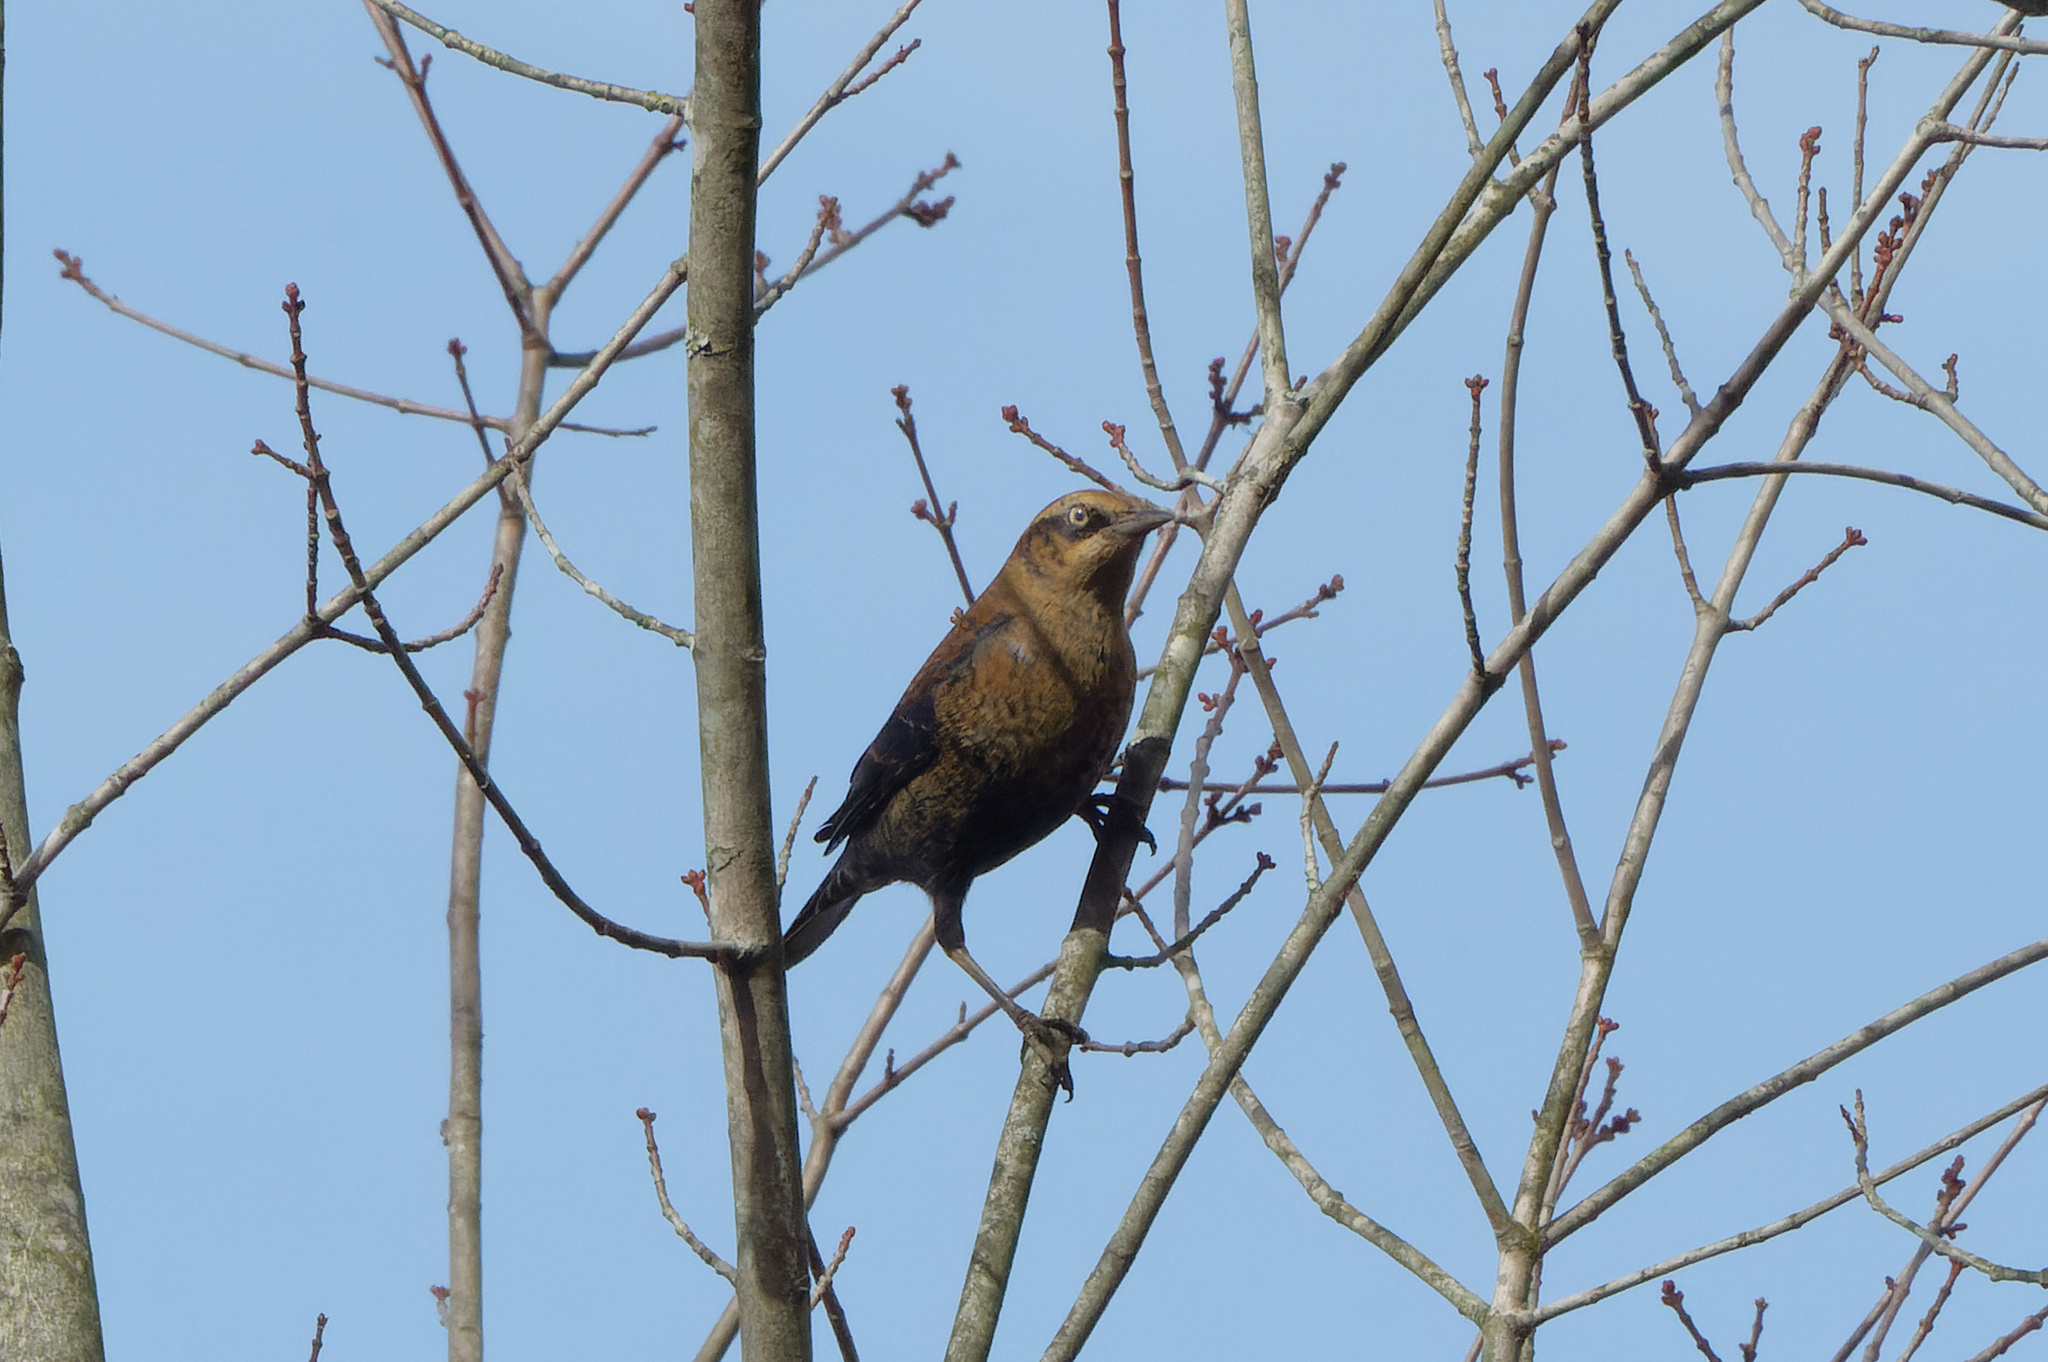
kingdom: Animalia
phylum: Chordata
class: Aves
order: Passeriformes
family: Icteridae
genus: Euphagus
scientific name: Euphagus carolinus
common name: Rusty blackbird
